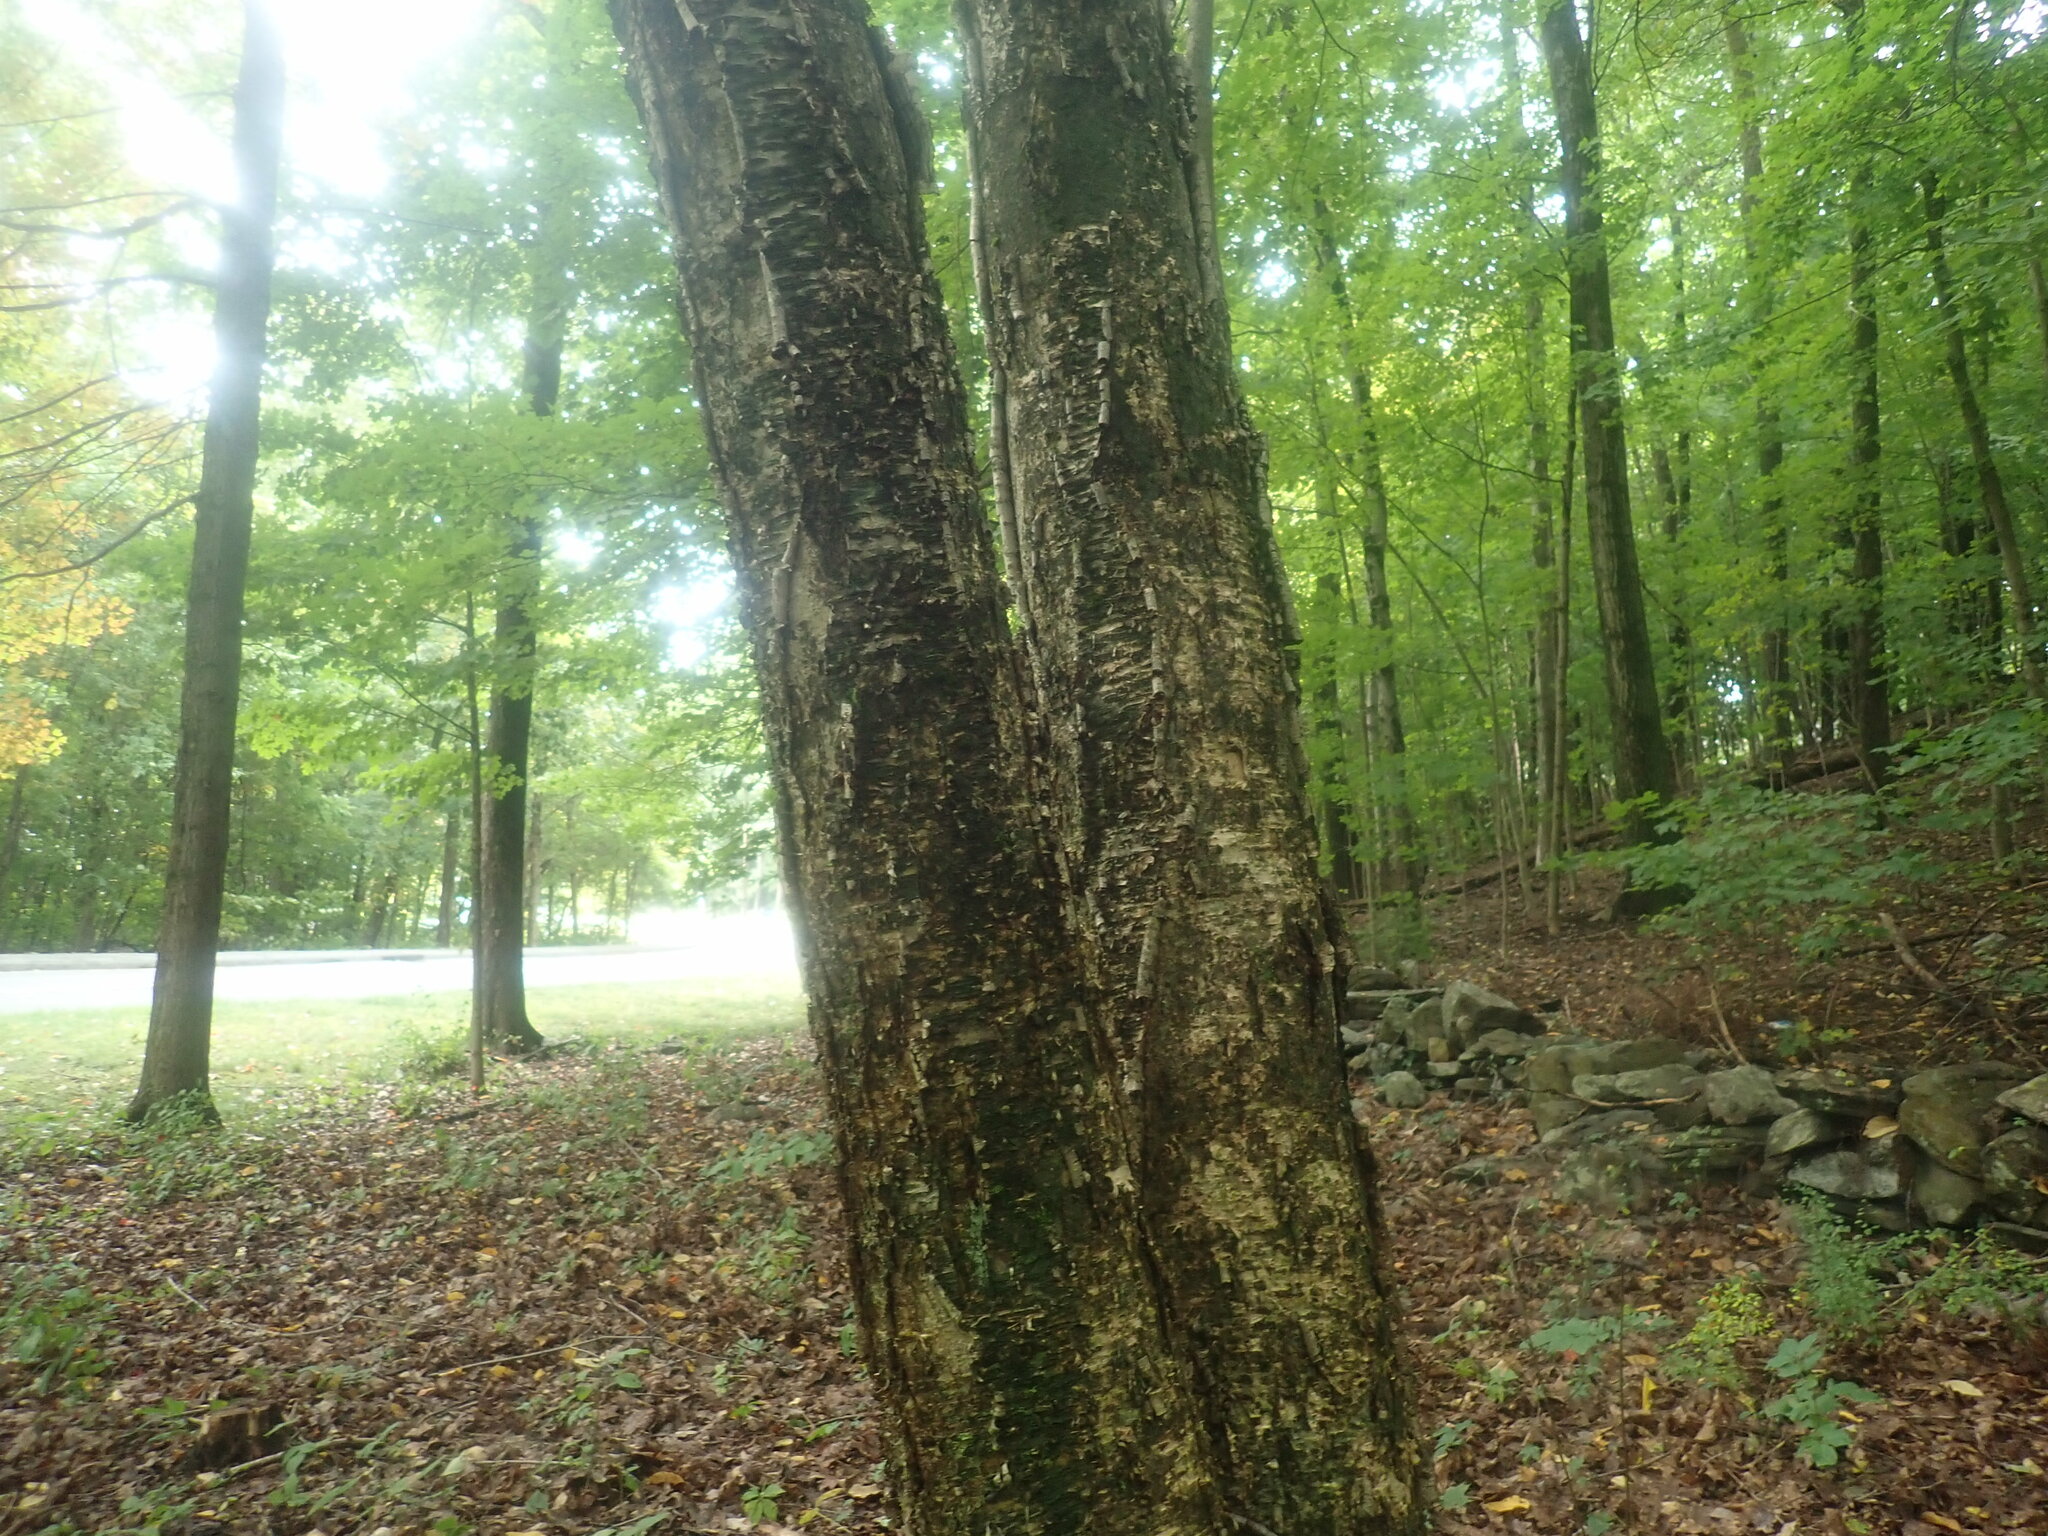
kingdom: Plantae
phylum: Tracheophyta
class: Magnoliopsida
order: Fagales
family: Betulaceae
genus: Betula
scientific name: Betula alleghaniensis
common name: Yellow birch
